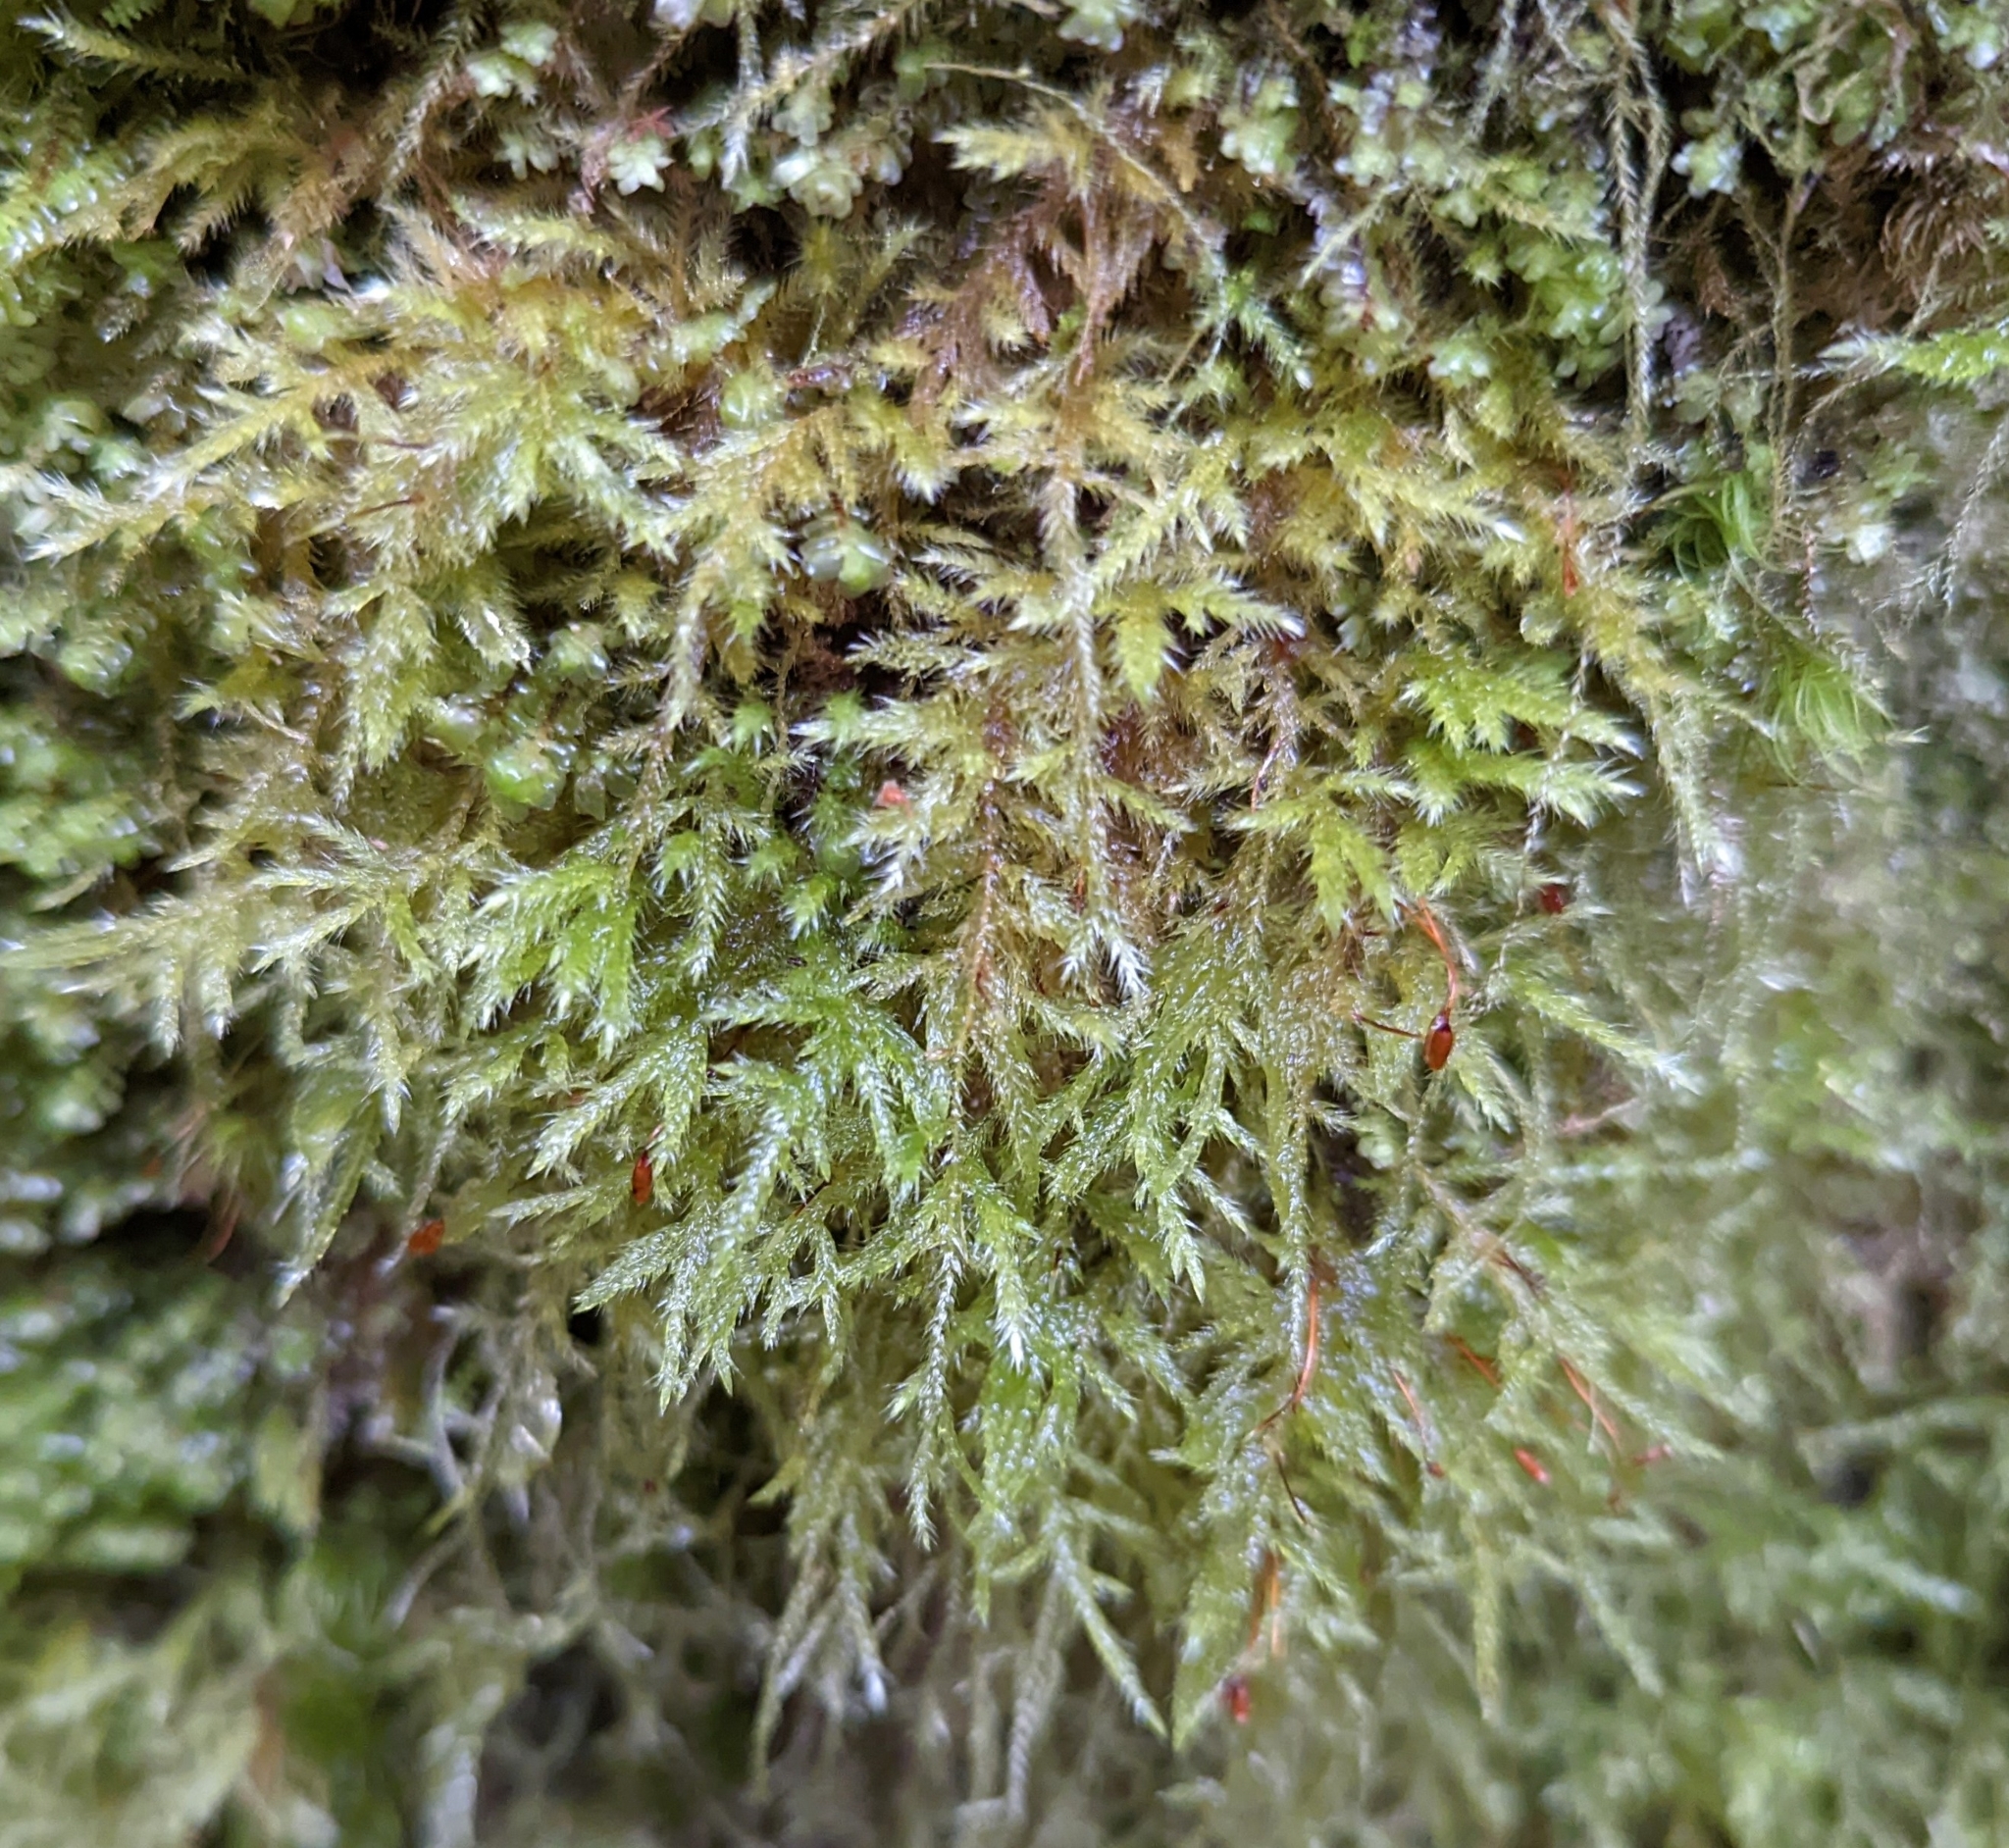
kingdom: Plantae
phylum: Bryophyta
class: Bryopsida
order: Hypnales
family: Lembophyllaceae
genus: Pseudisothecium
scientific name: Pseudisothecium stoloniferum
